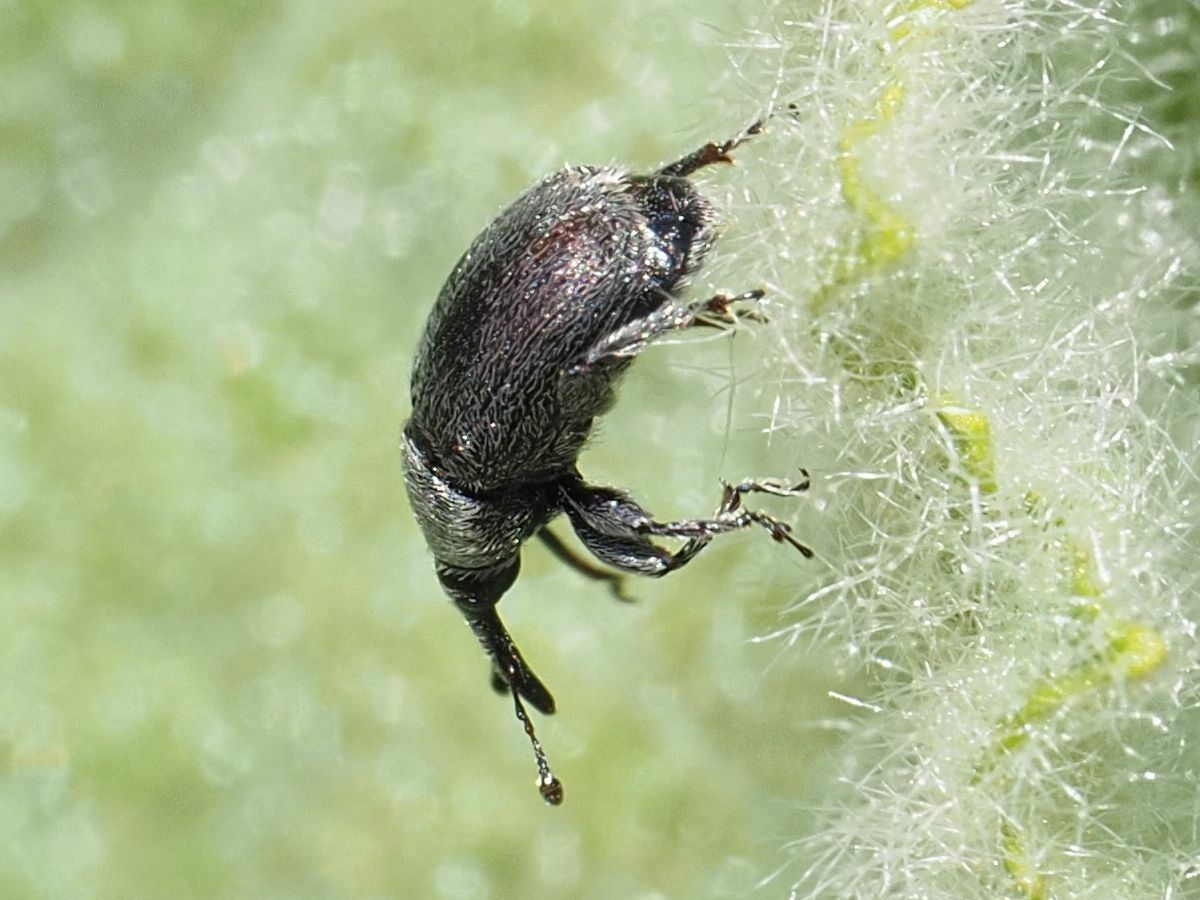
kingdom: Animalia
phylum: Arthropoda
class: Insecta
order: Coleoptera
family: Curculionidae
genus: Rhinusa
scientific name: Rhinusa asellus
